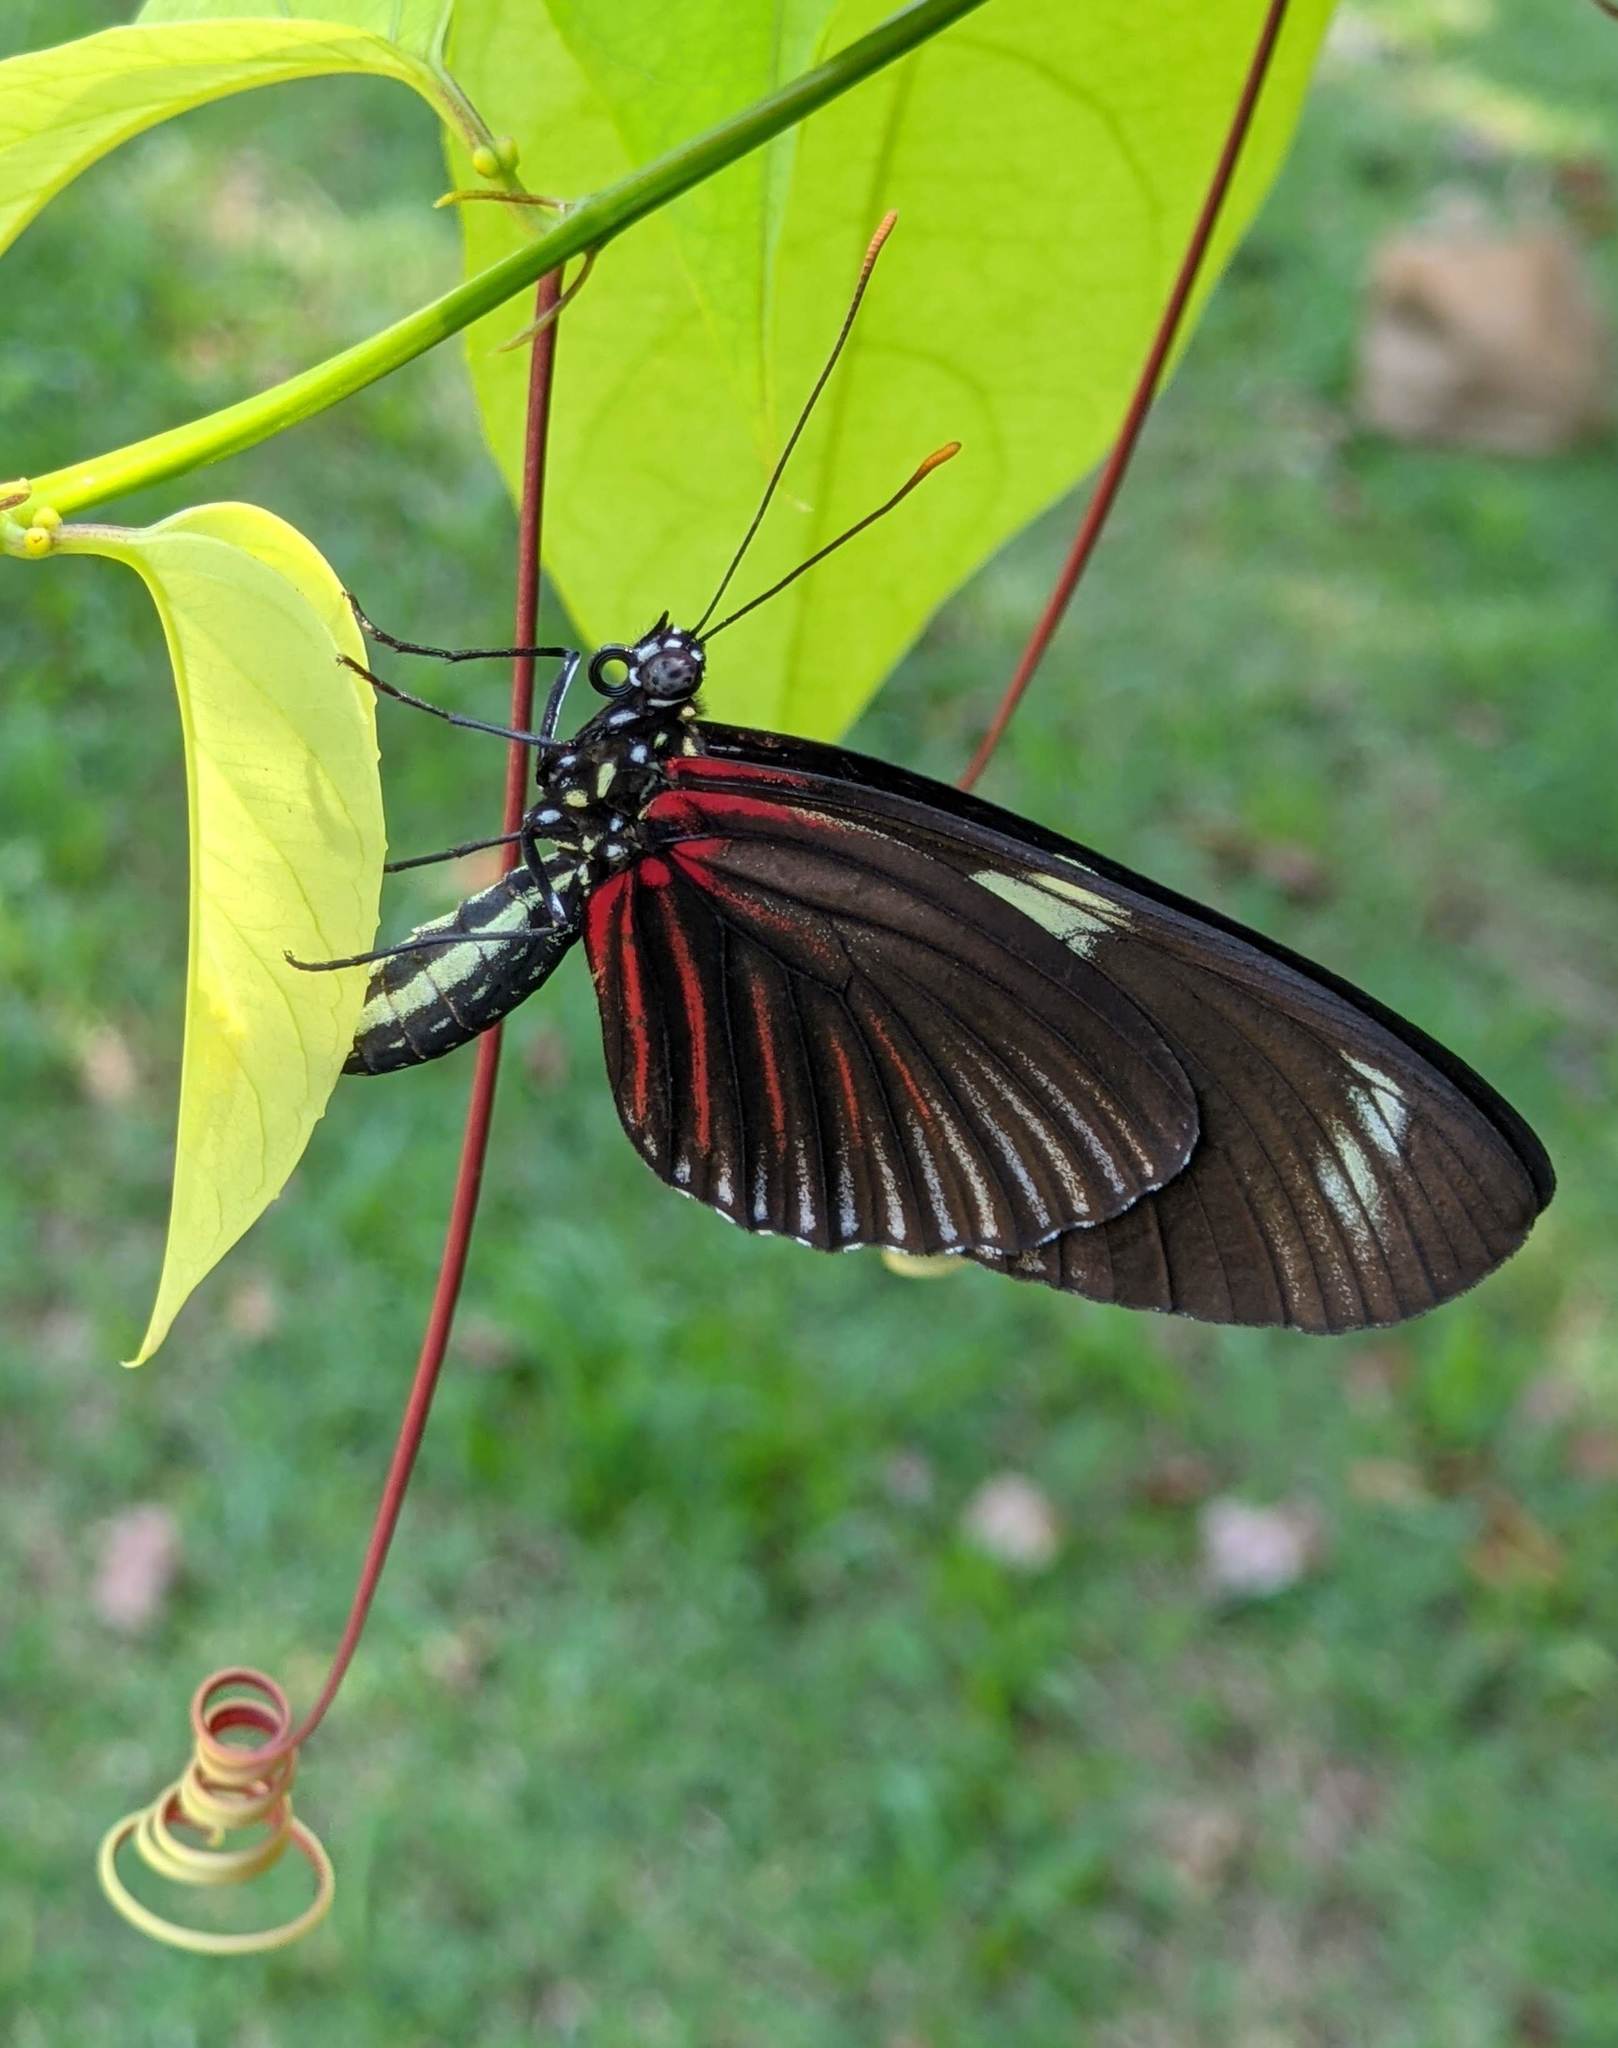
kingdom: Animalia
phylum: Arthropoda
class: Insecta
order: Lepidoptera
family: Nymphalidae
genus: Heliconius
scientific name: Heliconius doris
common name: Doris longwing
